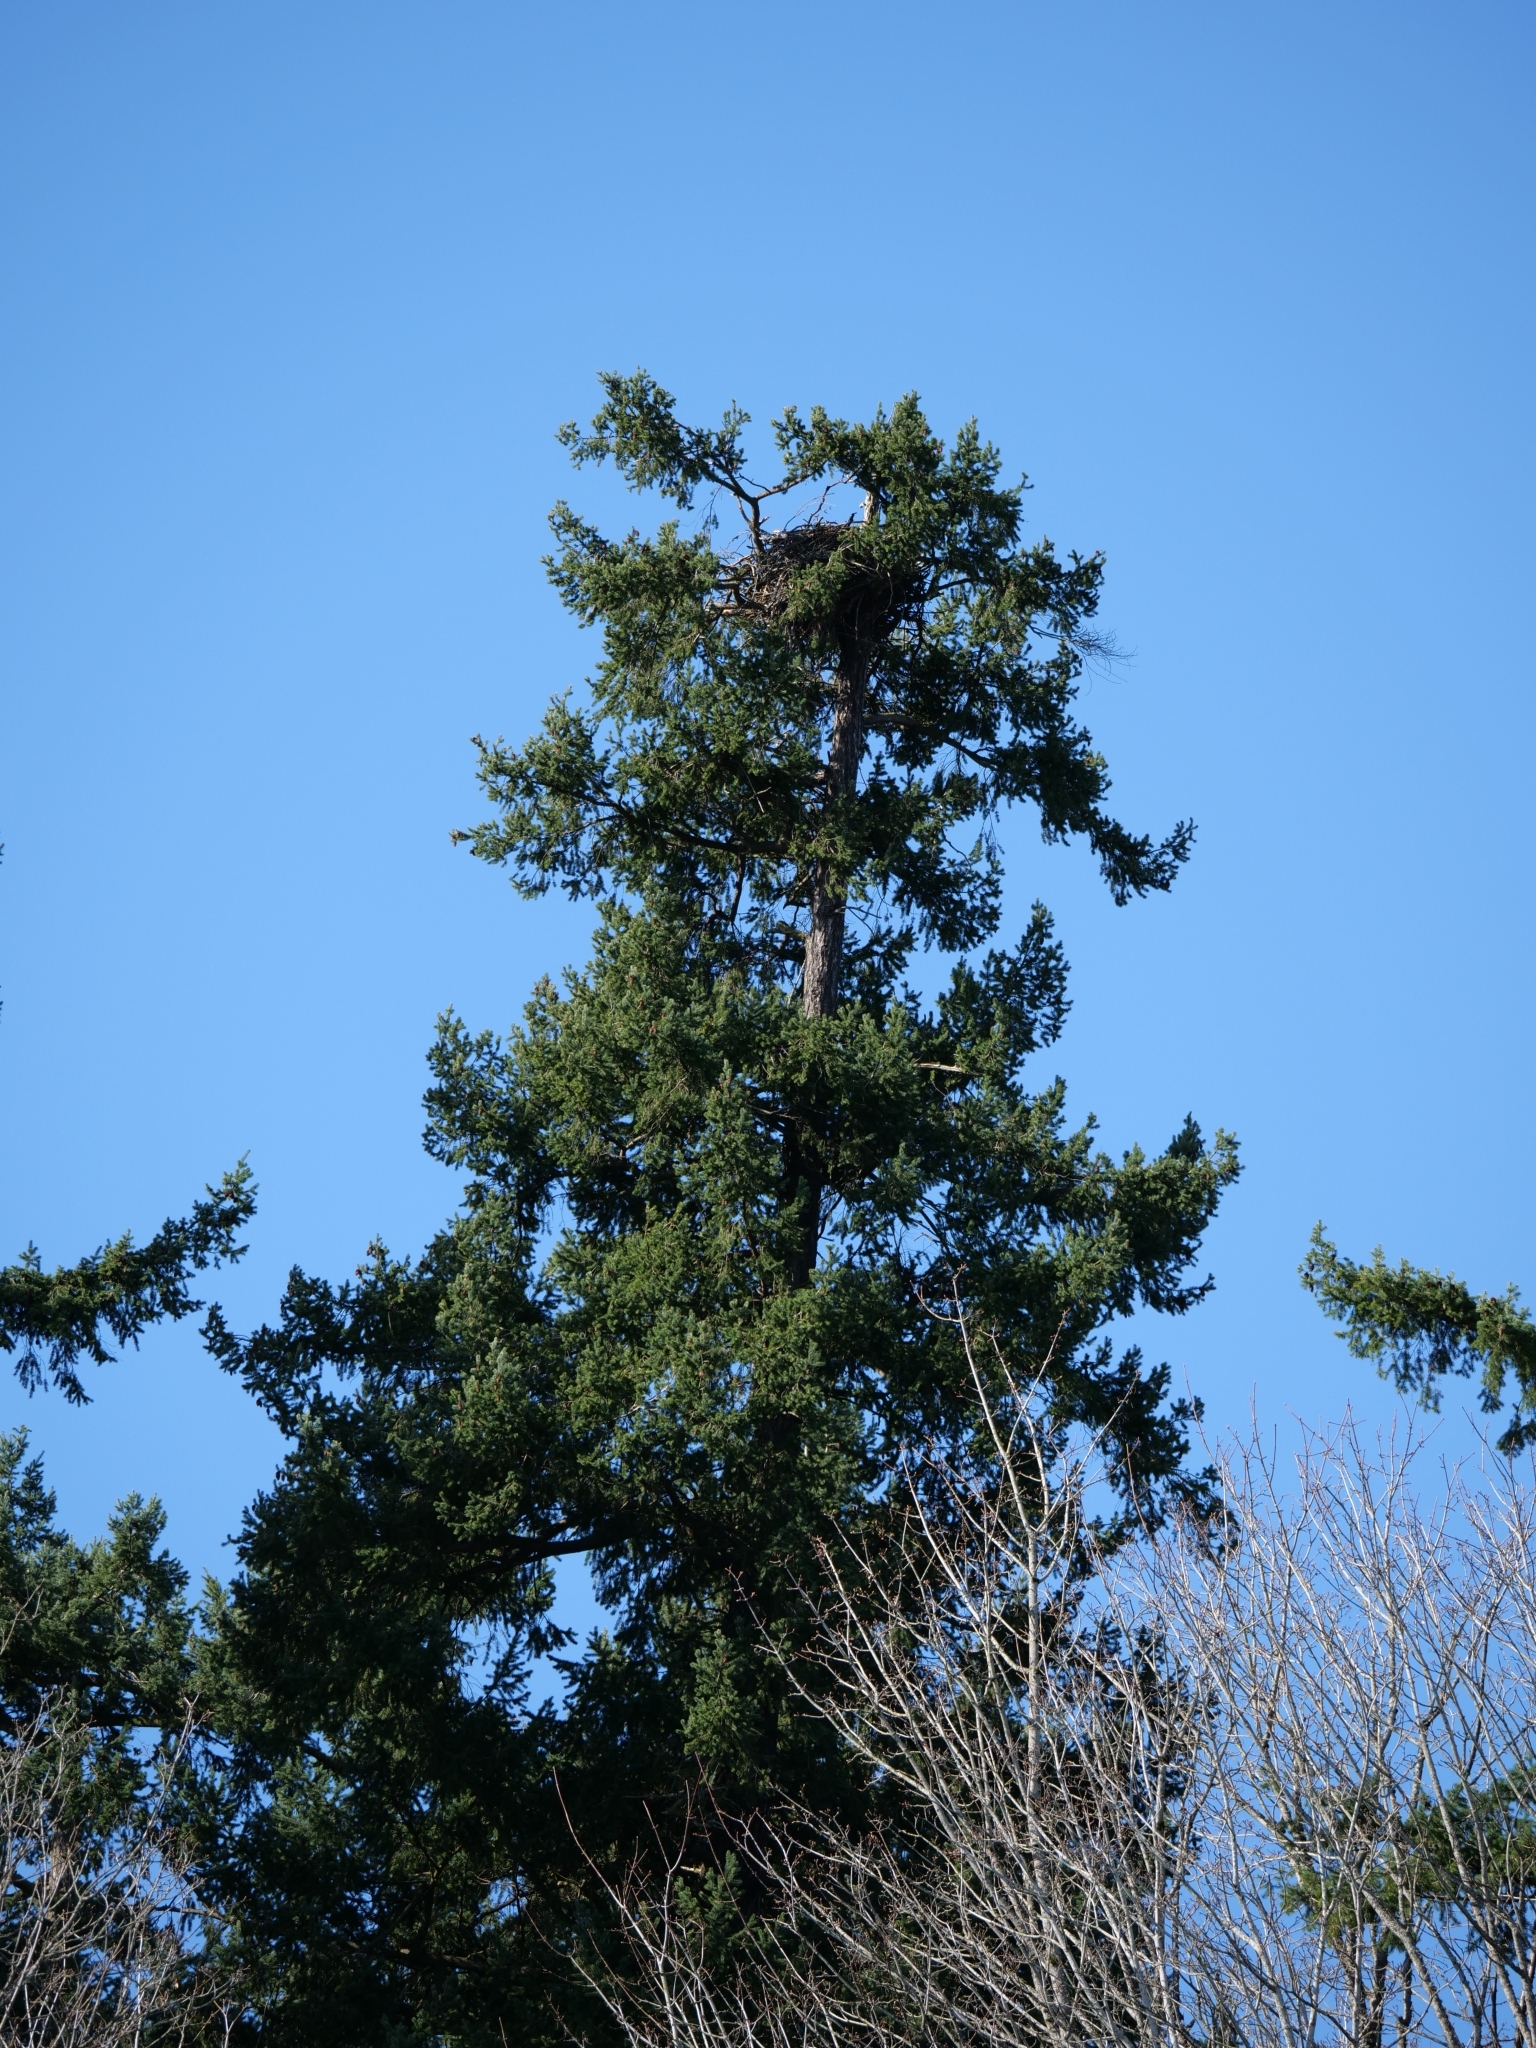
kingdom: Animalia
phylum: Chordata
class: Aves
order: Accipitriformes
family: Accipitridae
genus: Haliaeetus
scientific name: Haliaeetus leucocephalus
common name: Bald eagle
